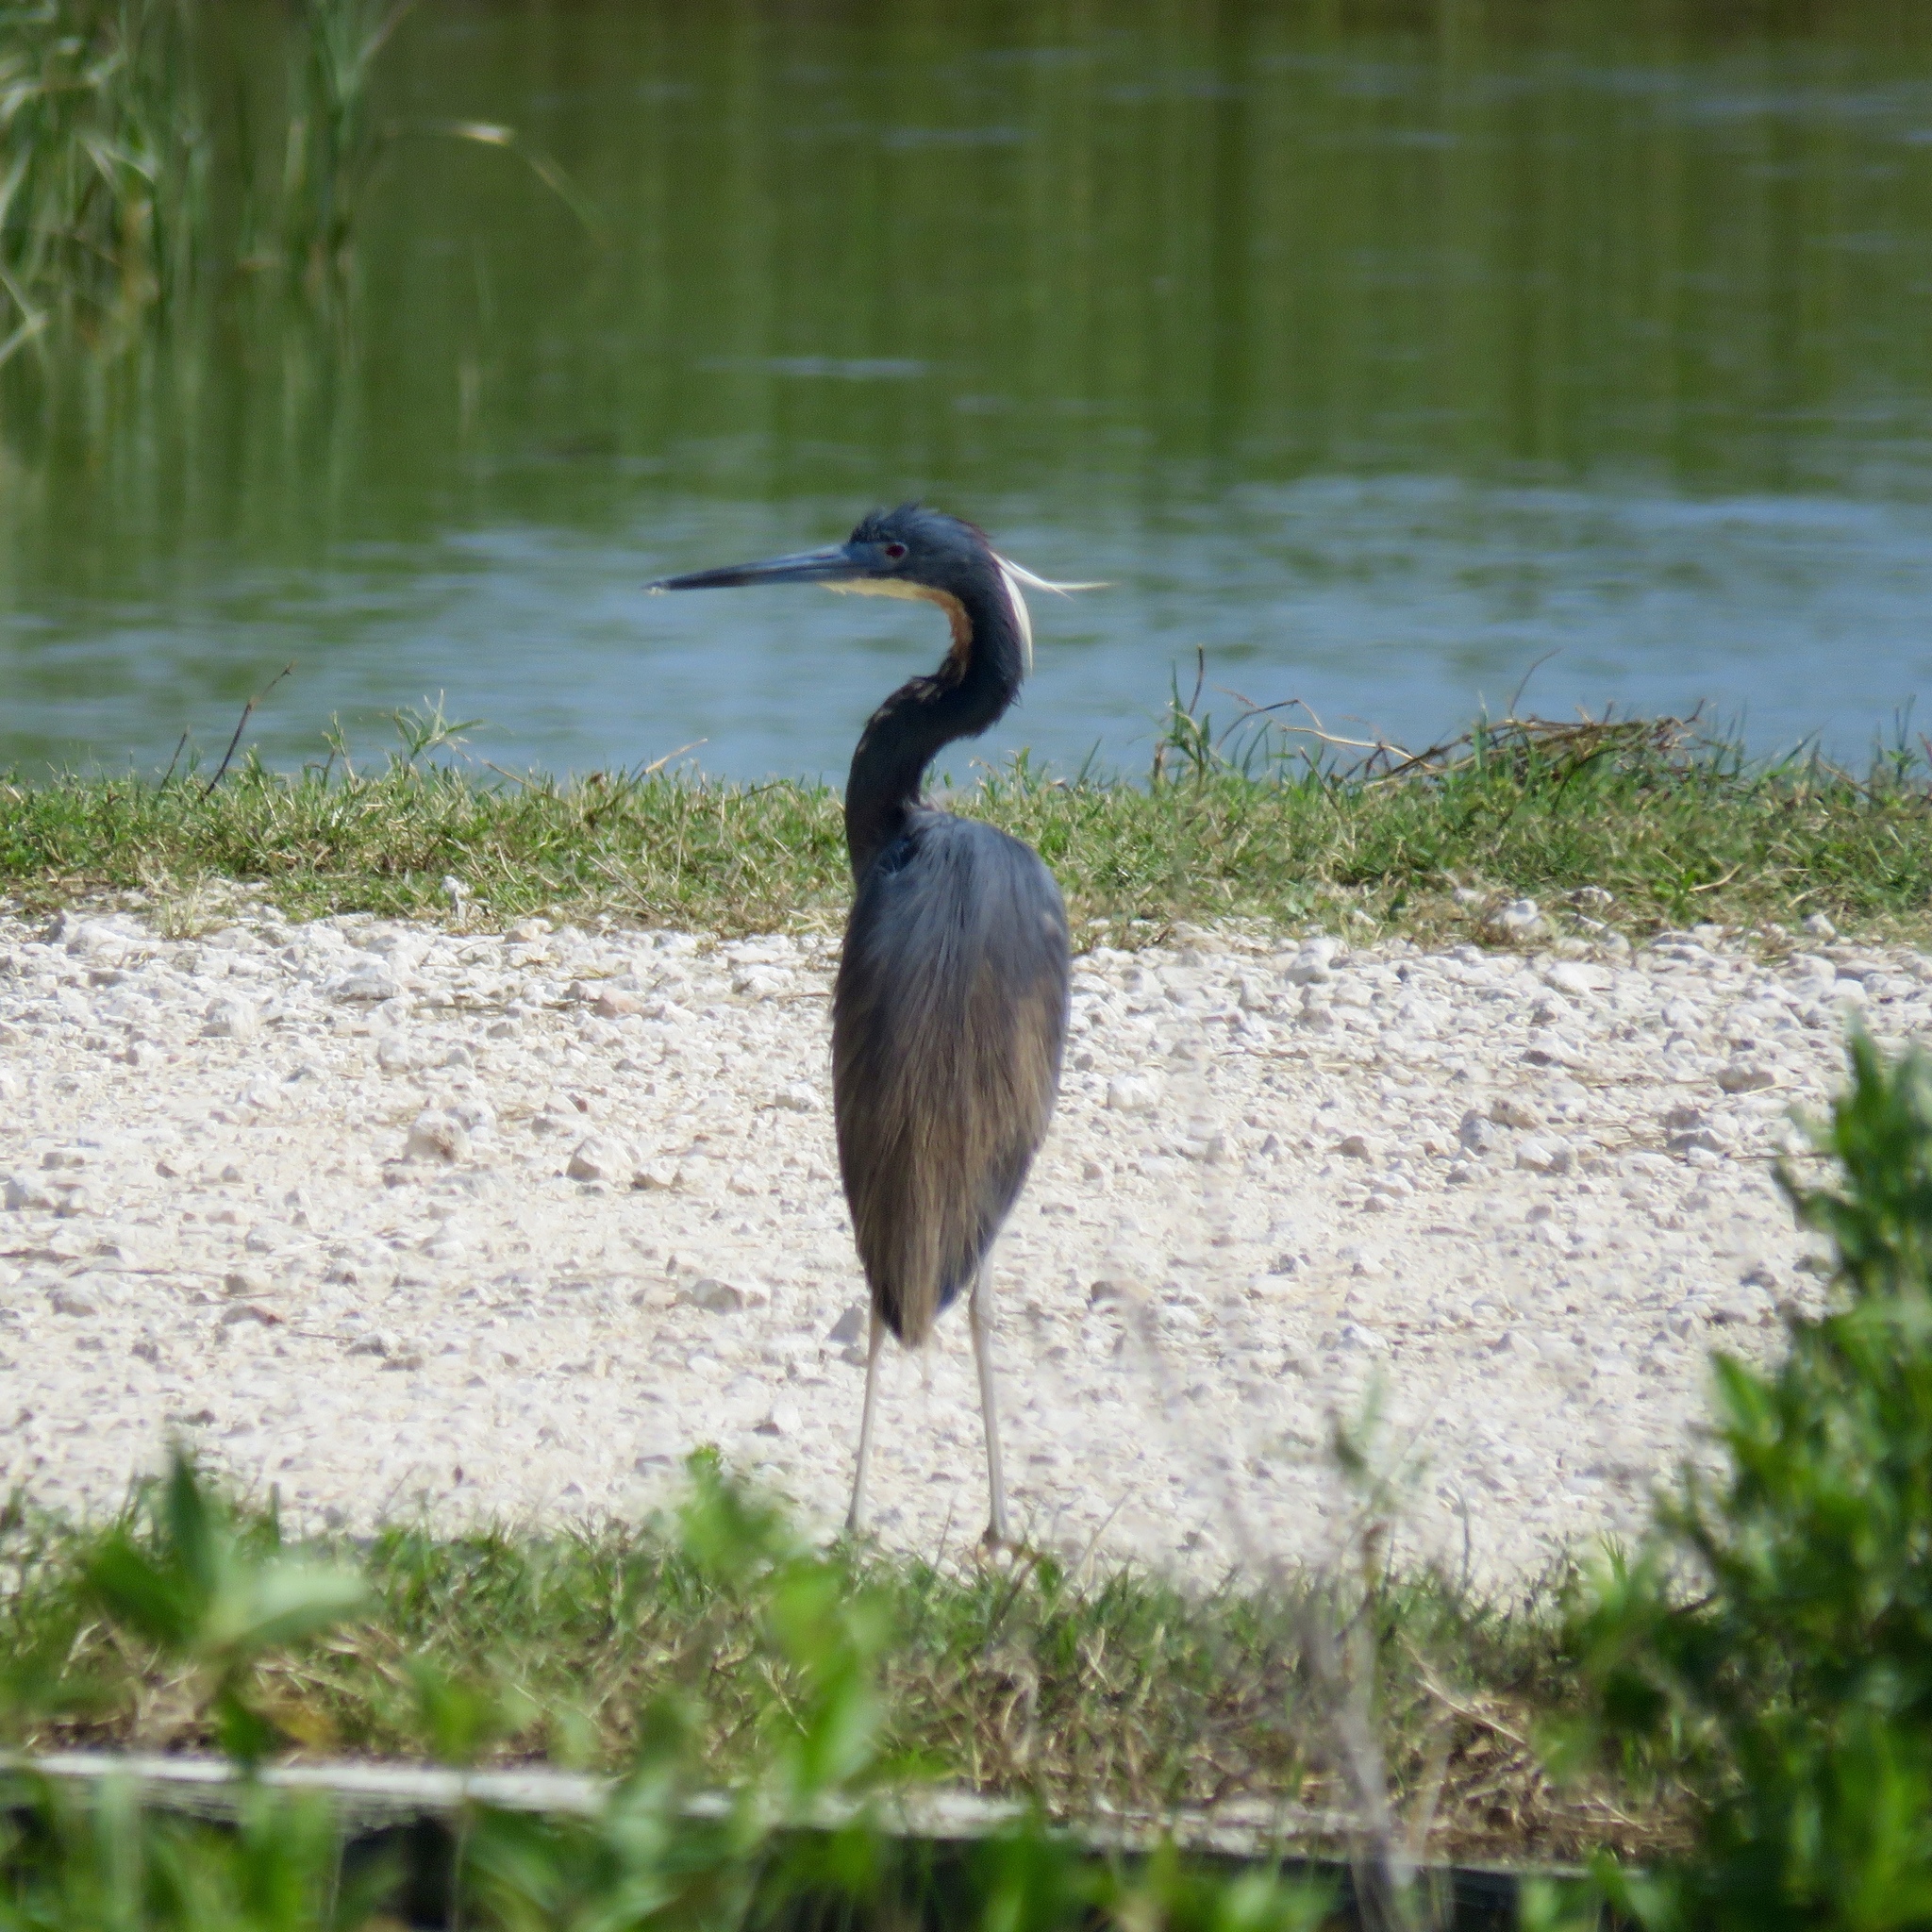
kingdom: Animalia
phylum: Chordata
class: Aves
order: Pelecaniformes
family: Ardeidae
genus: Egretta
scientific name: Egretta tricolor
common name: Tricolored heron
